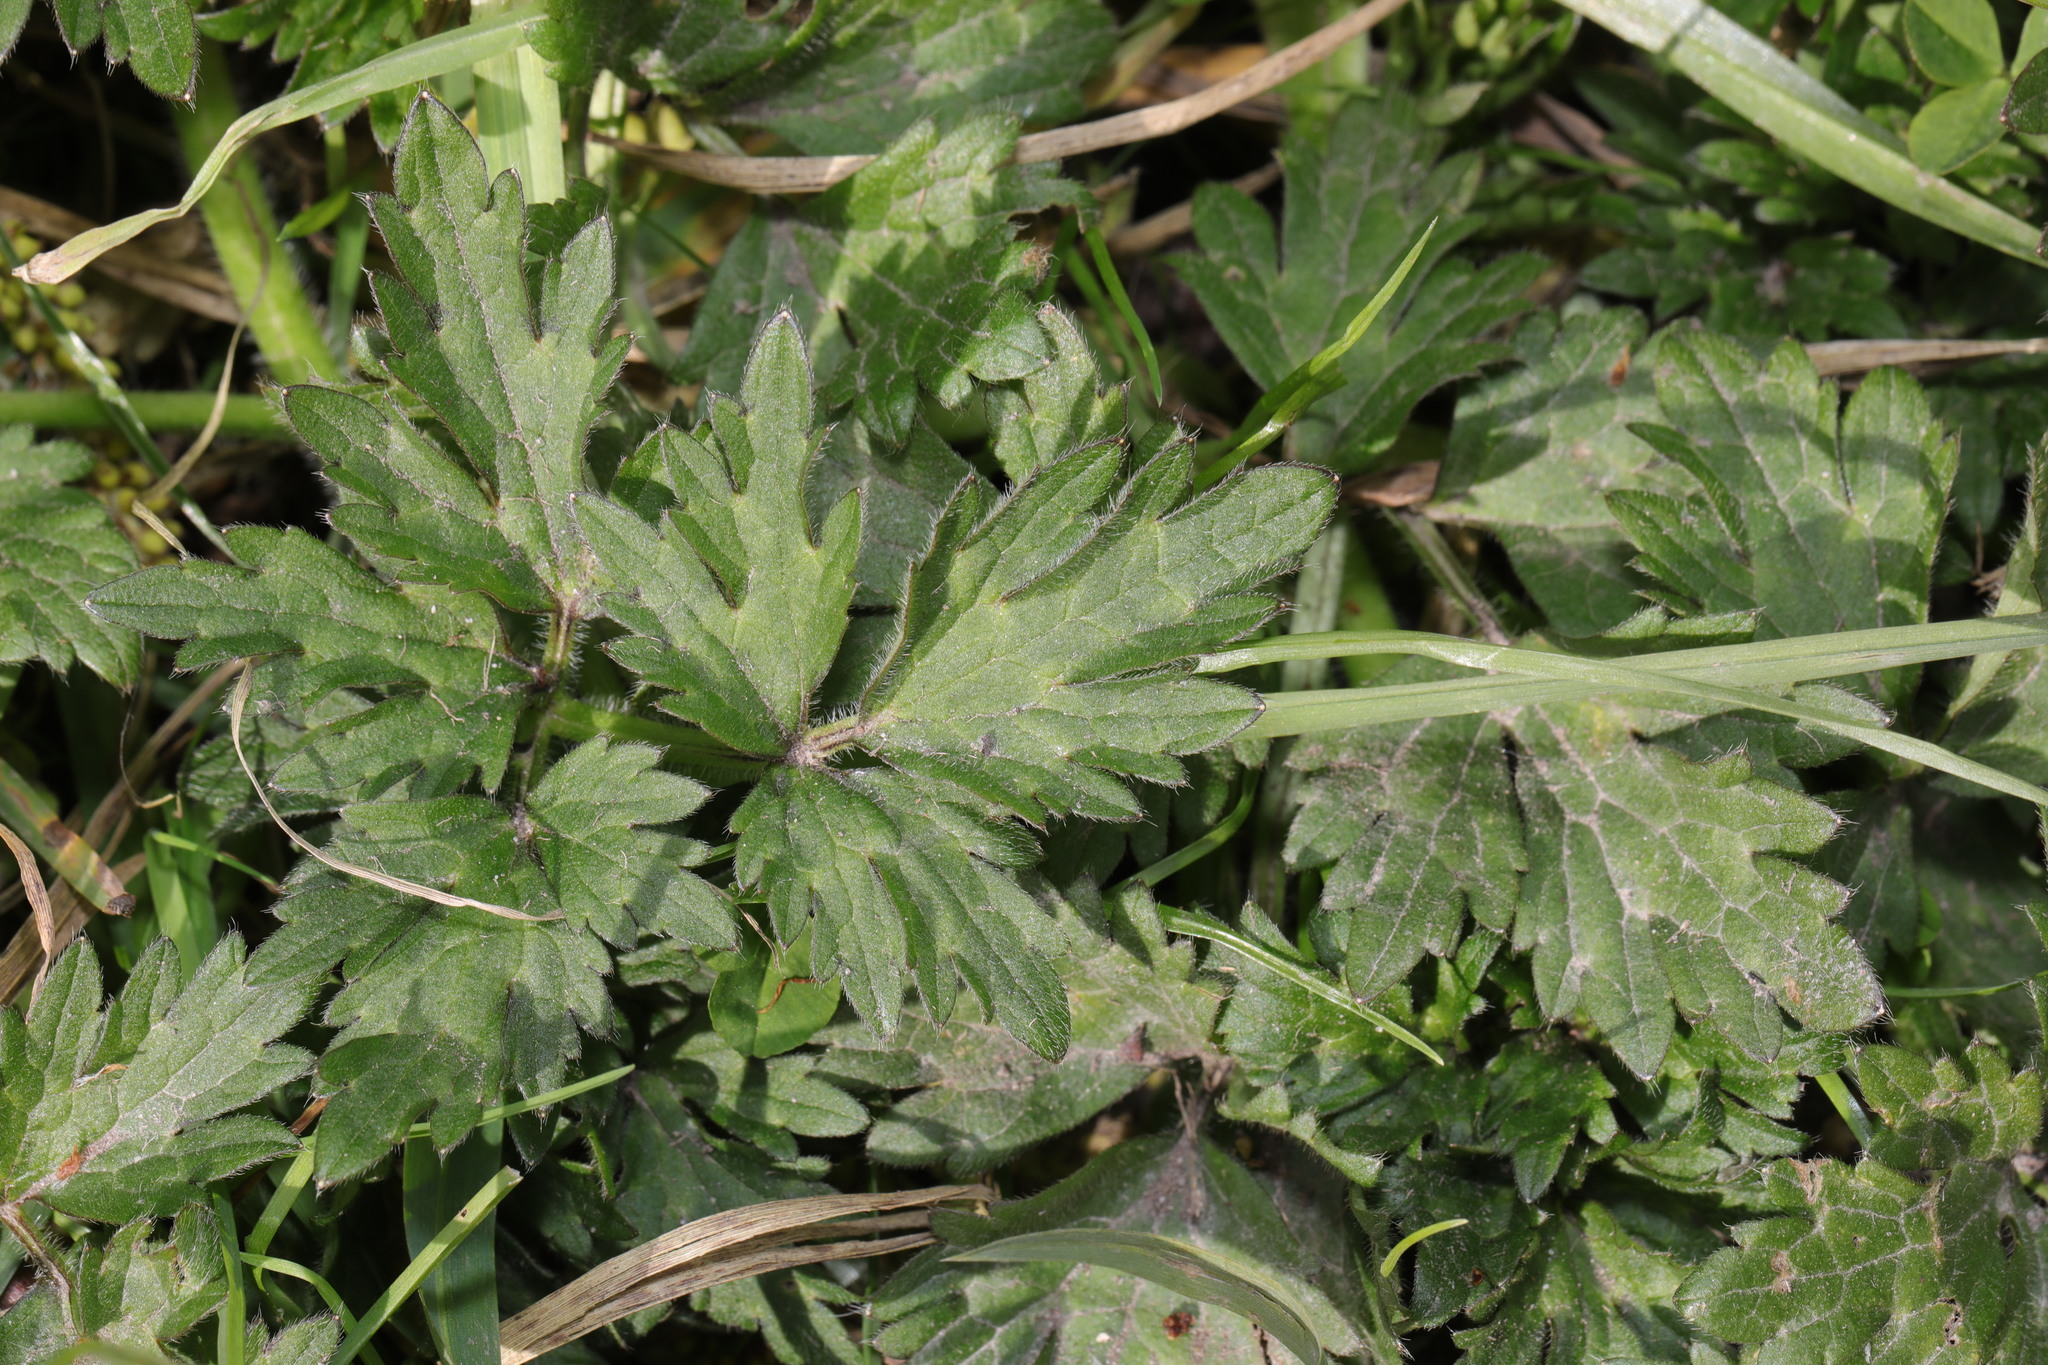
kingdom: Plantae
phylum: Tracheophyta
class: Magnoliopsida
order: Ranunculales
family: Ranunculaceae
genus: Ranunculus
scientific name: Ranunculus repens
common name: Creeping buttercup
